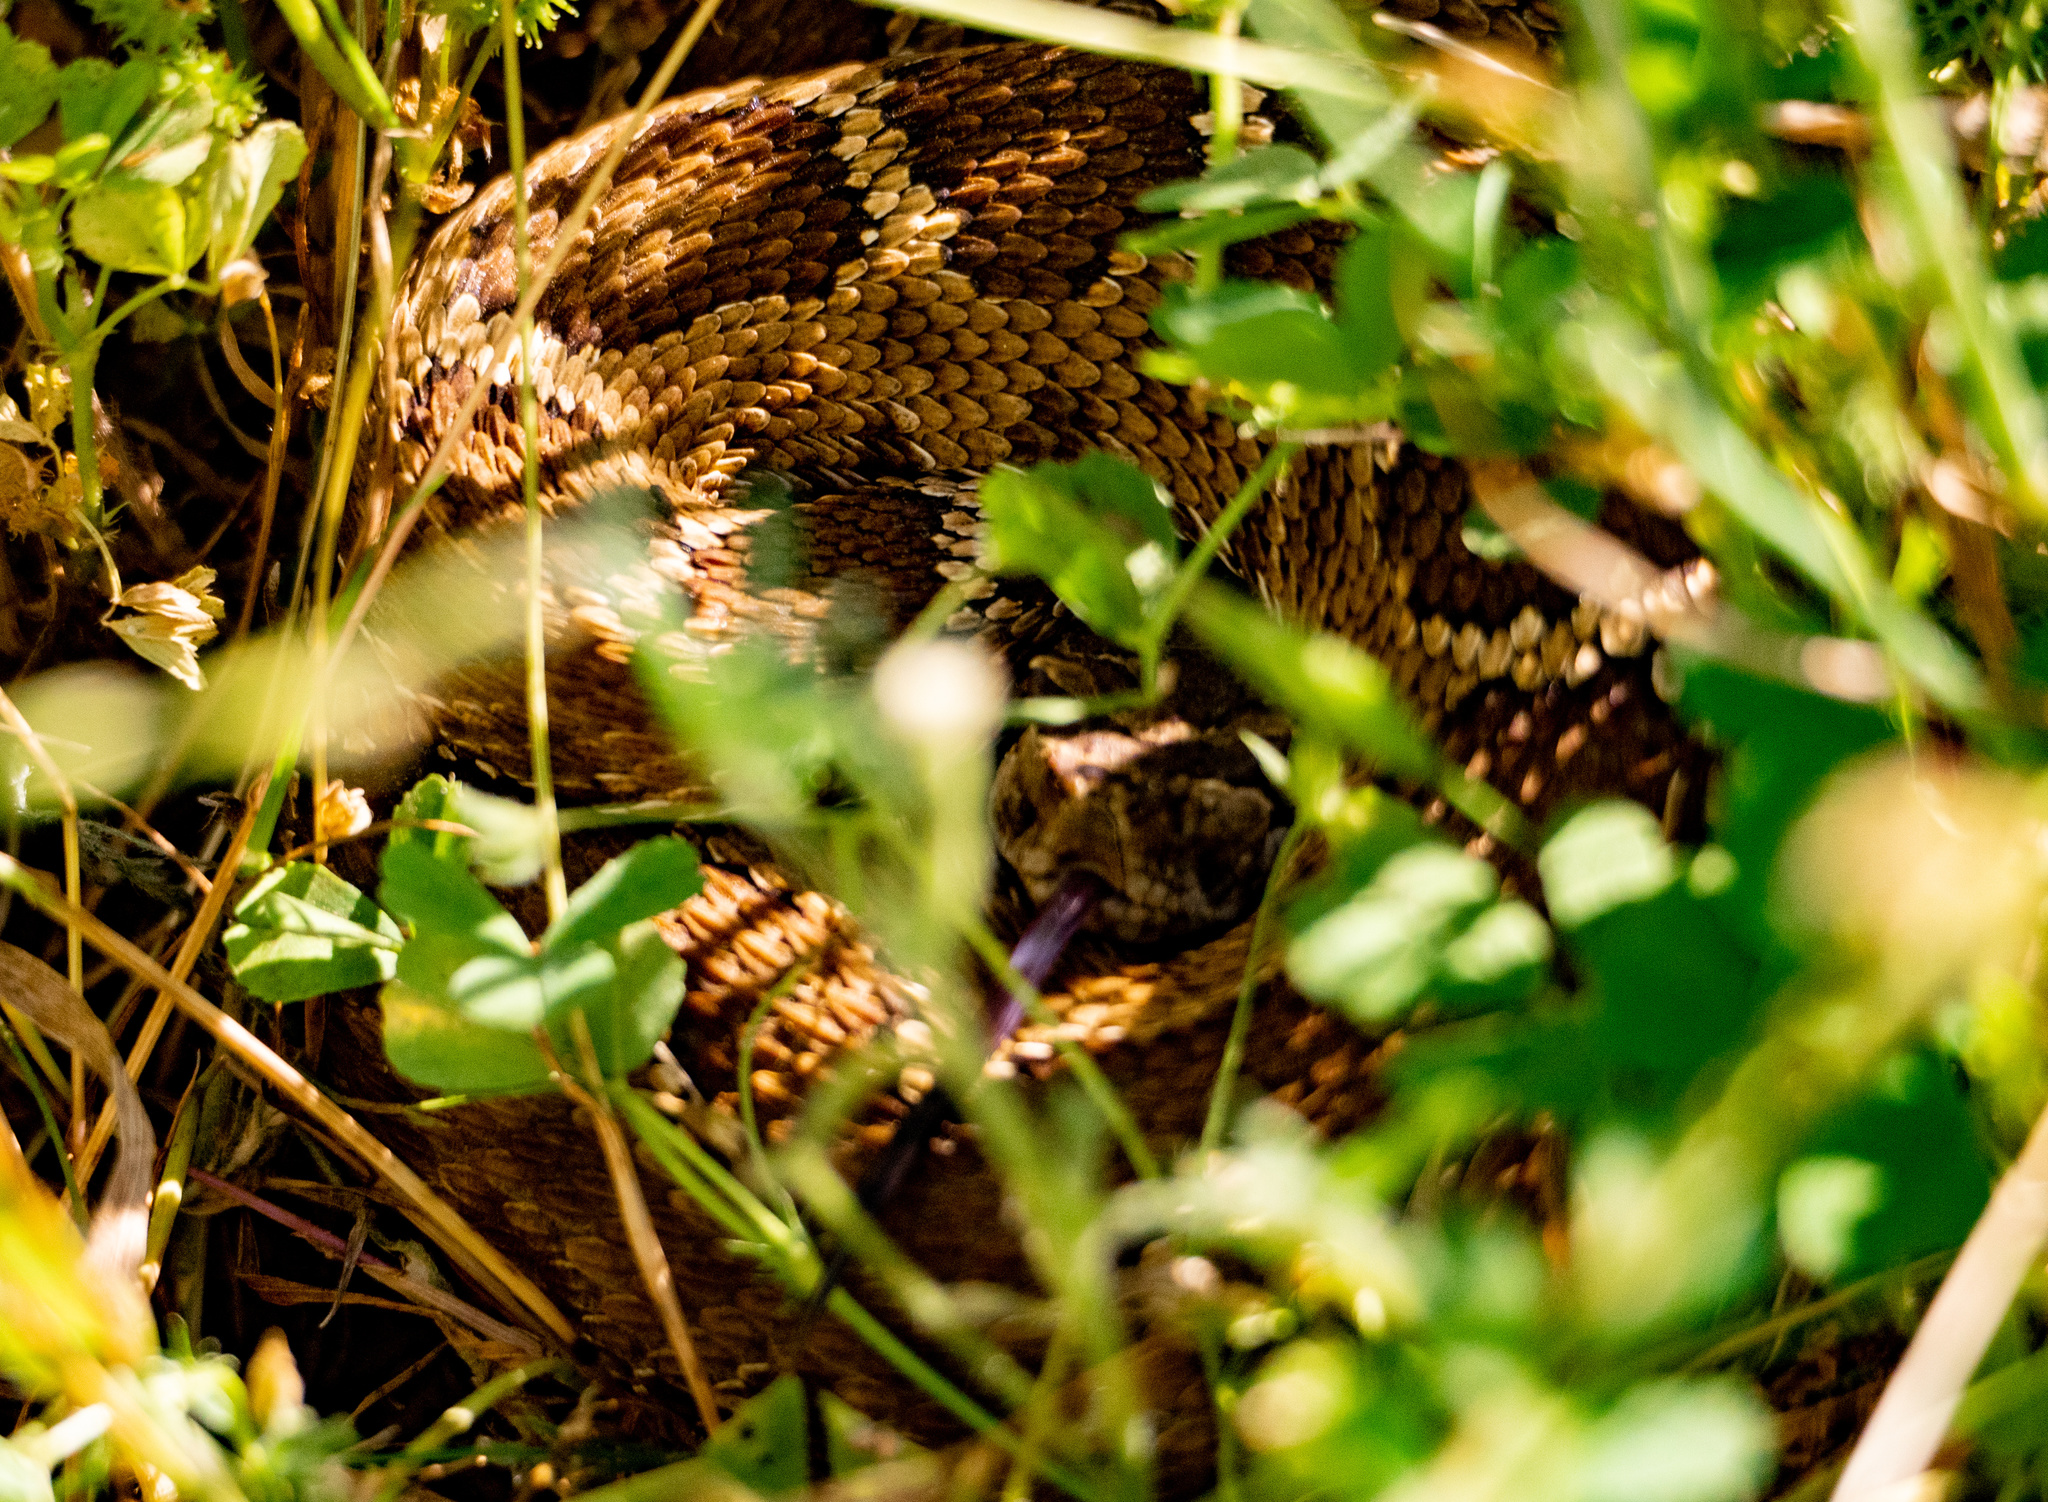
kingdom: Animalia
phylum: Chordata
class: Squamata
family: Viperidae
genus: Crotalus
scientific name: Crotalus oreganus
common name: Abyssus
